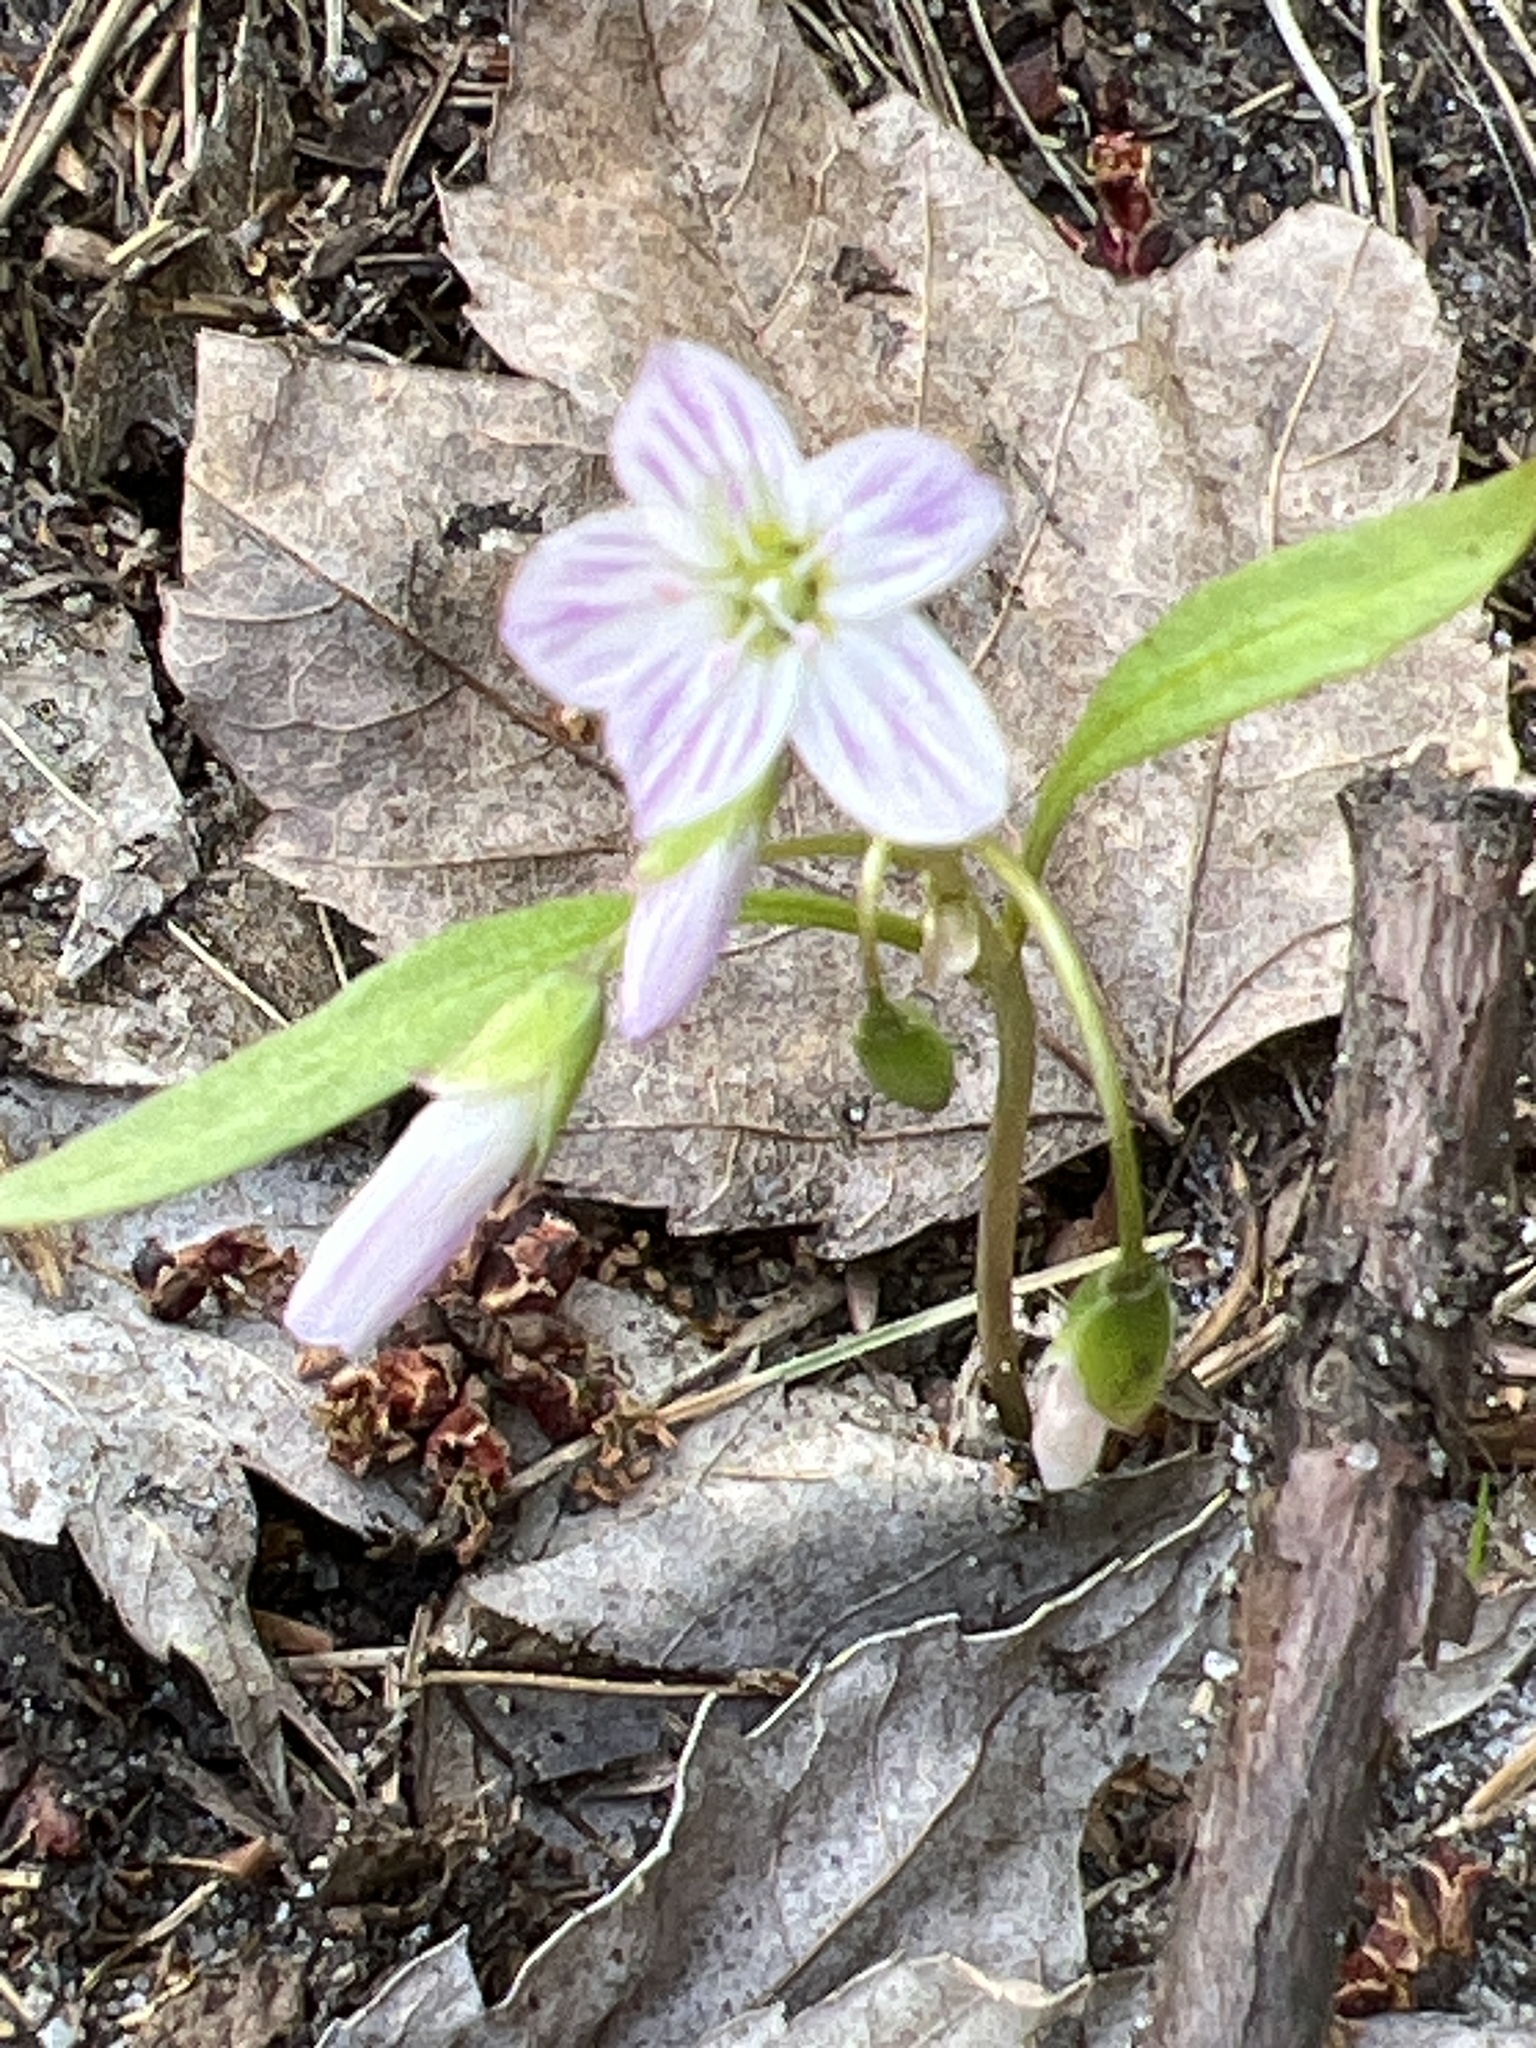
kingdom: Plantae
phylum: Tracheophyta
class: Magnoliopsida
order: Caryophyllales
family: Montiaceae
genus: Claytonia
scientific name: Claytonia caroliniana
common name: Carolina spring beauty
